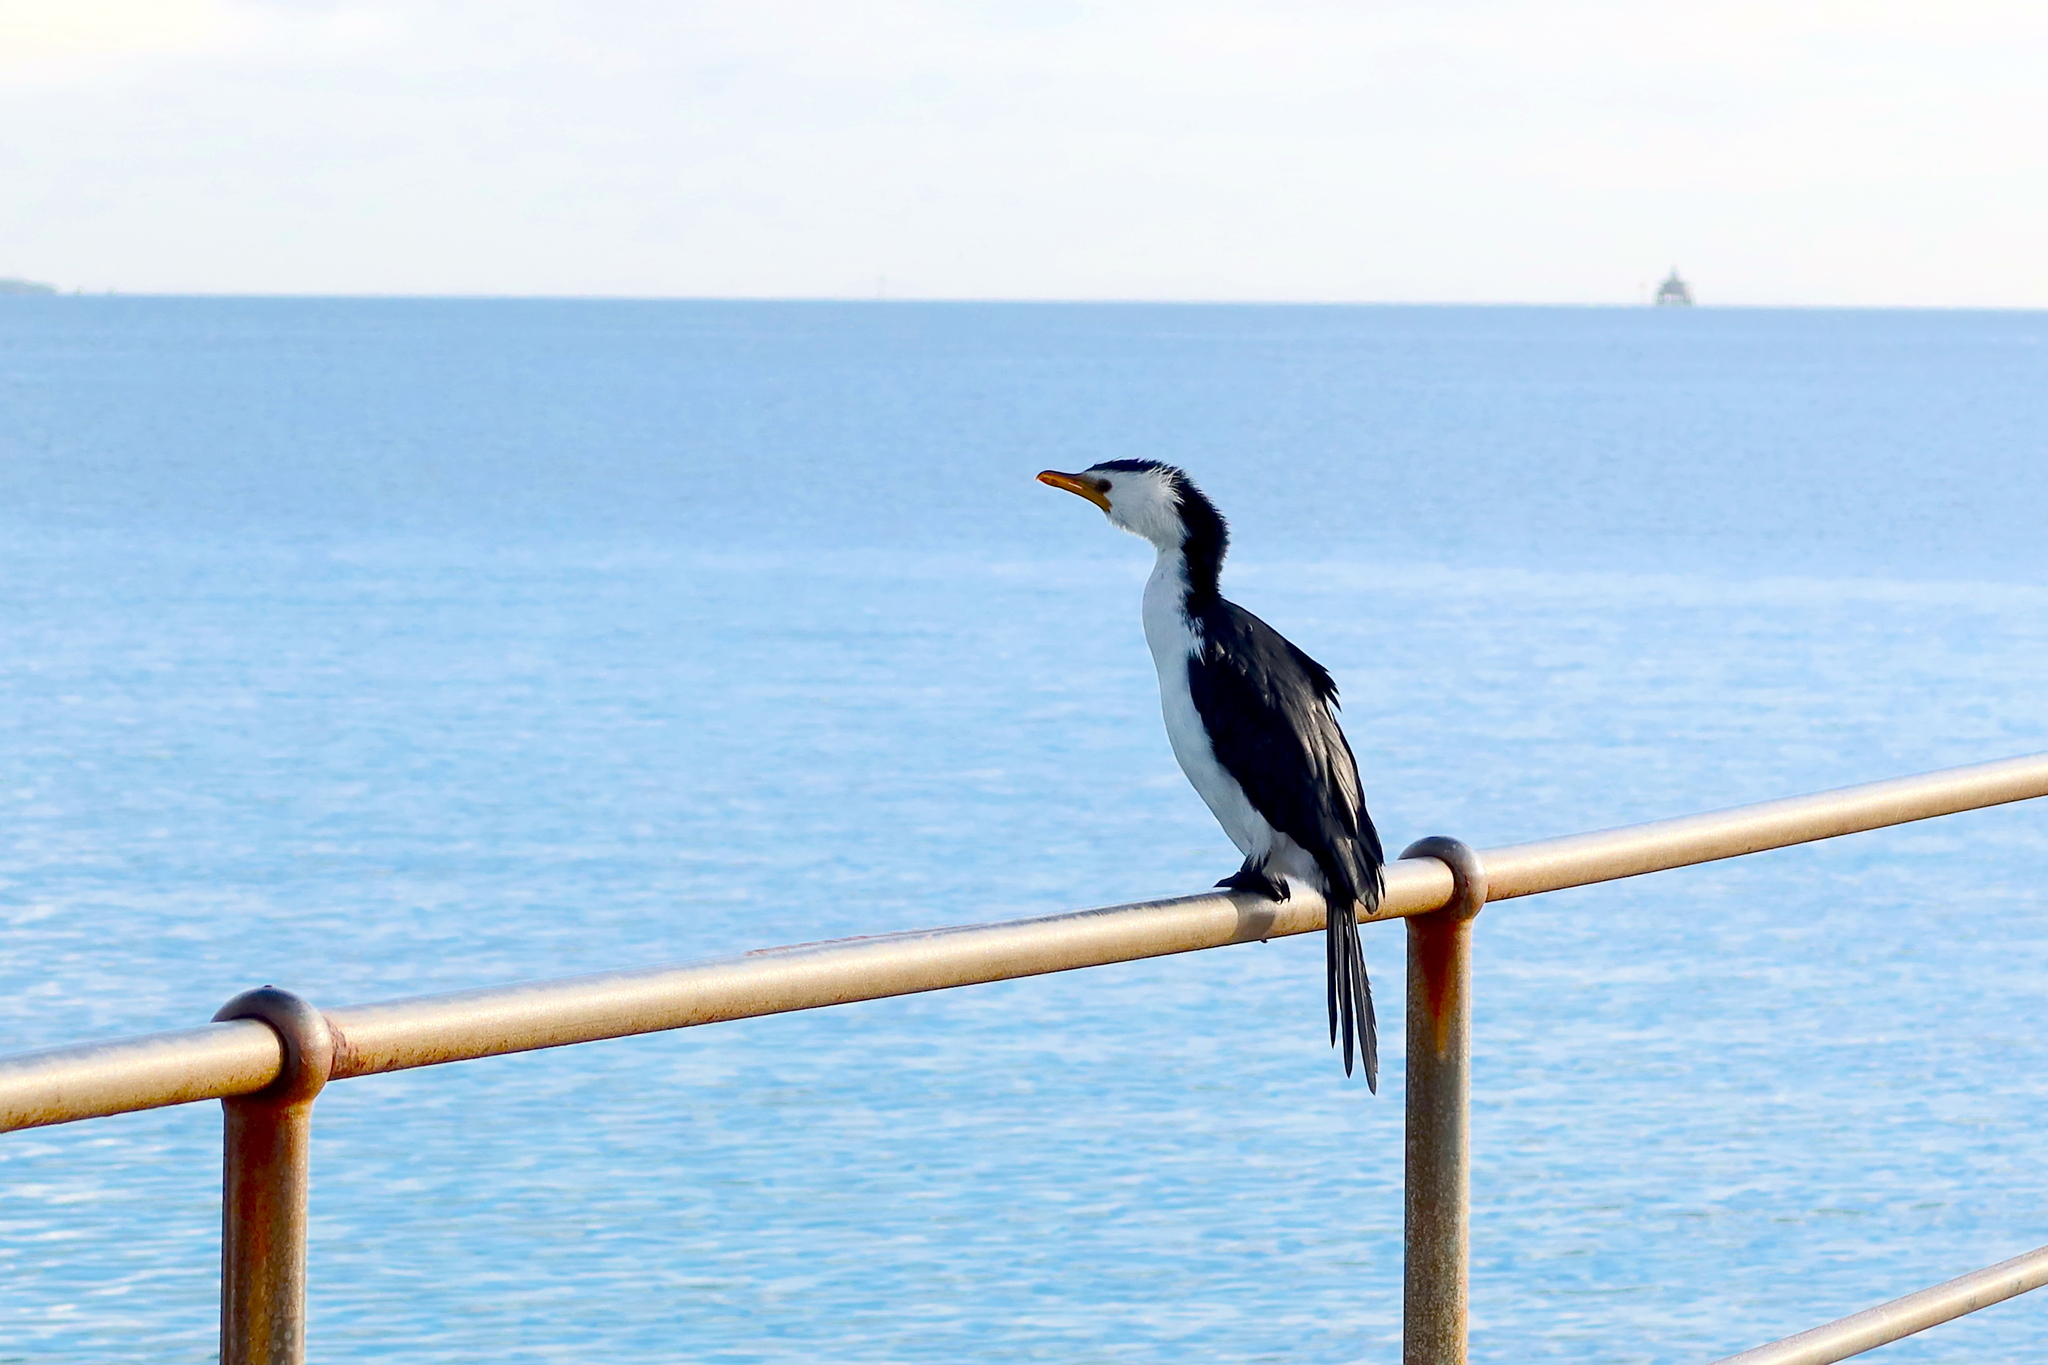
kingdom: Animalia
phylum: Chordata
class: Aves
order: Suliformes
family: Phalacrocoracidae
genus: Microcarbo
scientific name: Microcarbo melanoleucos
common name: Little pied cormorant
